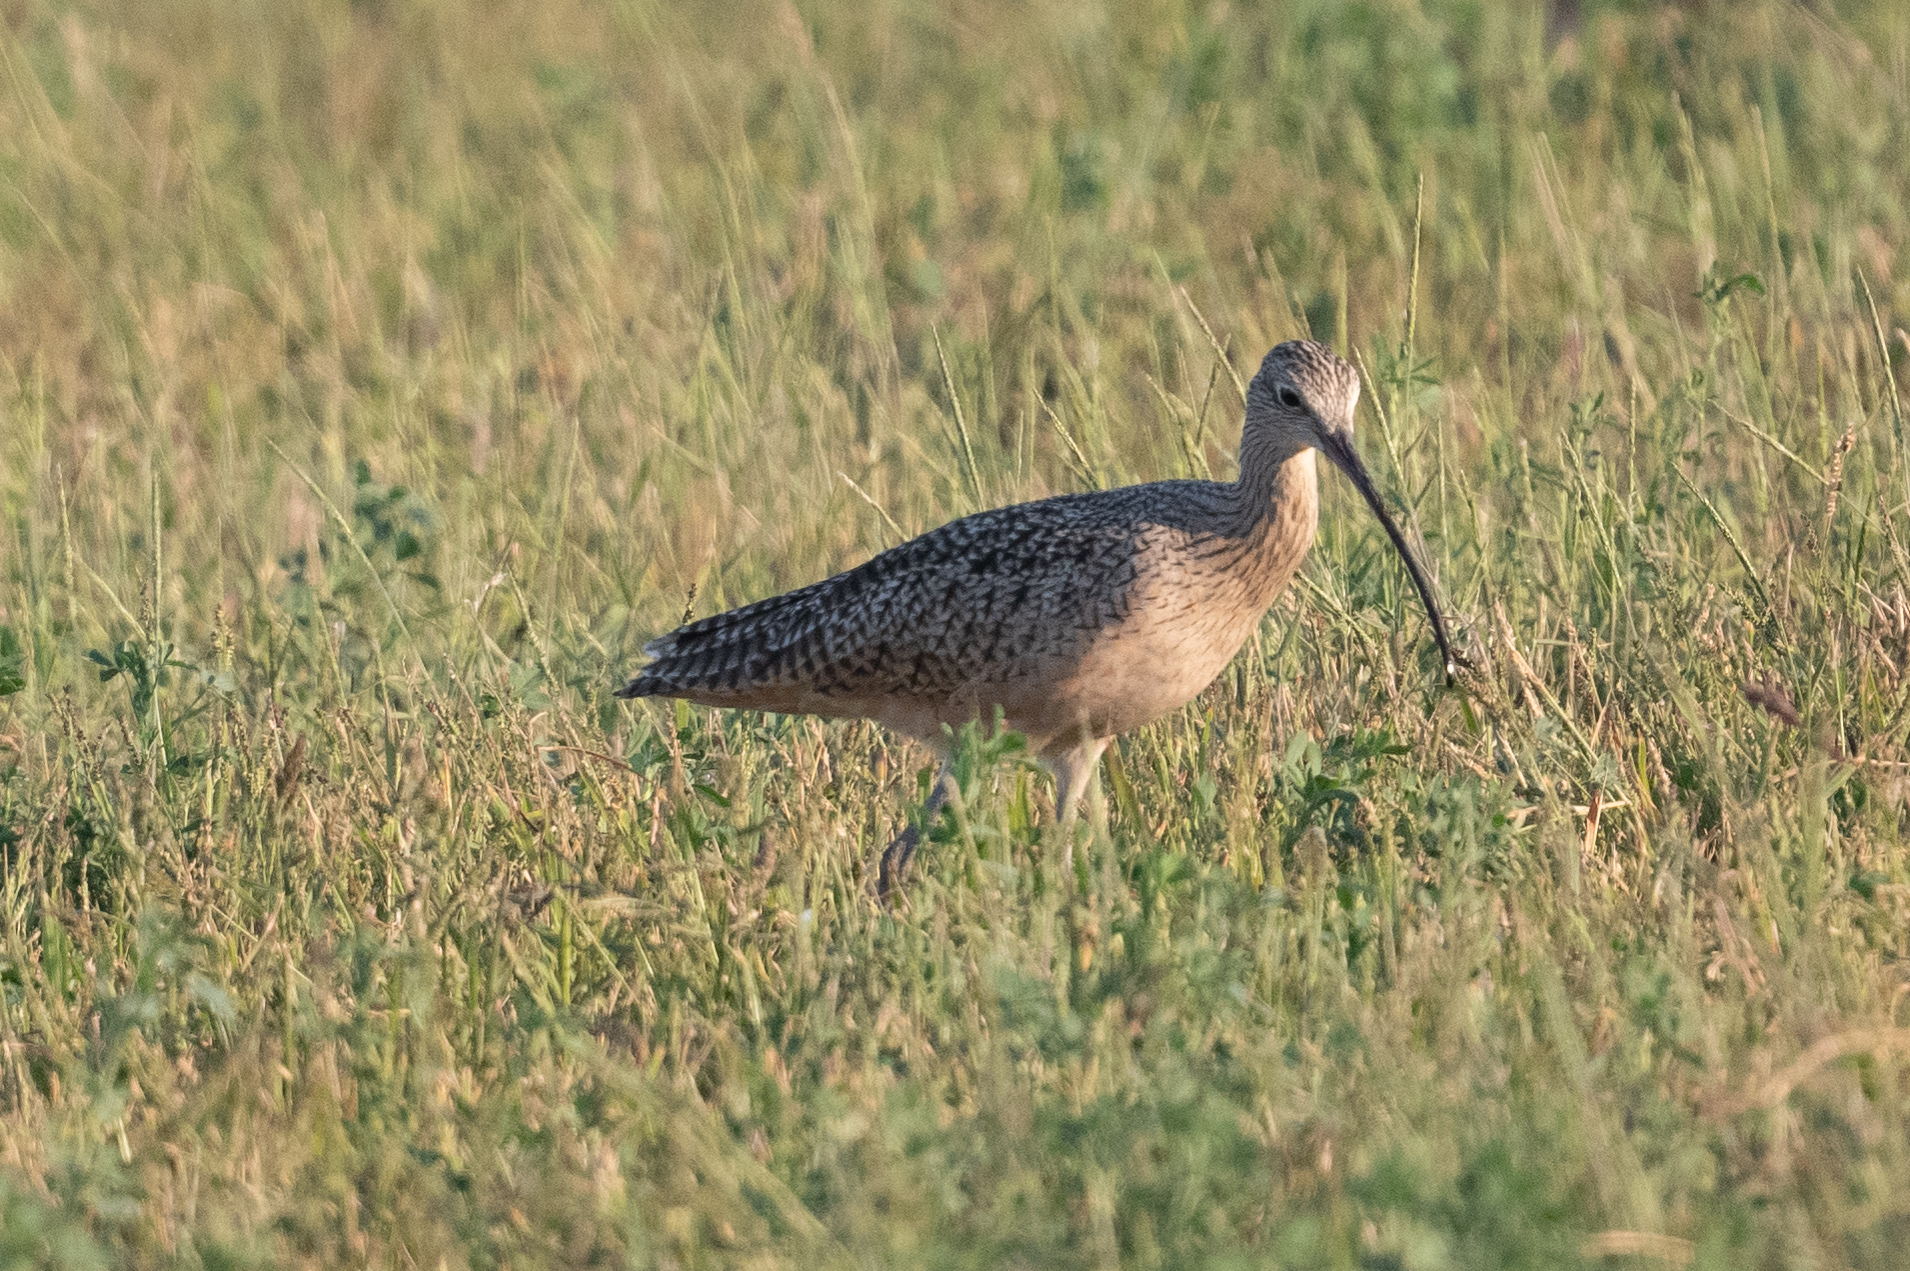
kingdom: Animalia
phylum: Chordata
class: Aves
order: Charadriiformes
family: Scolopacidae
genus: Numenius
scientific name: Numenius americanus
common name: Long-billed curlew
